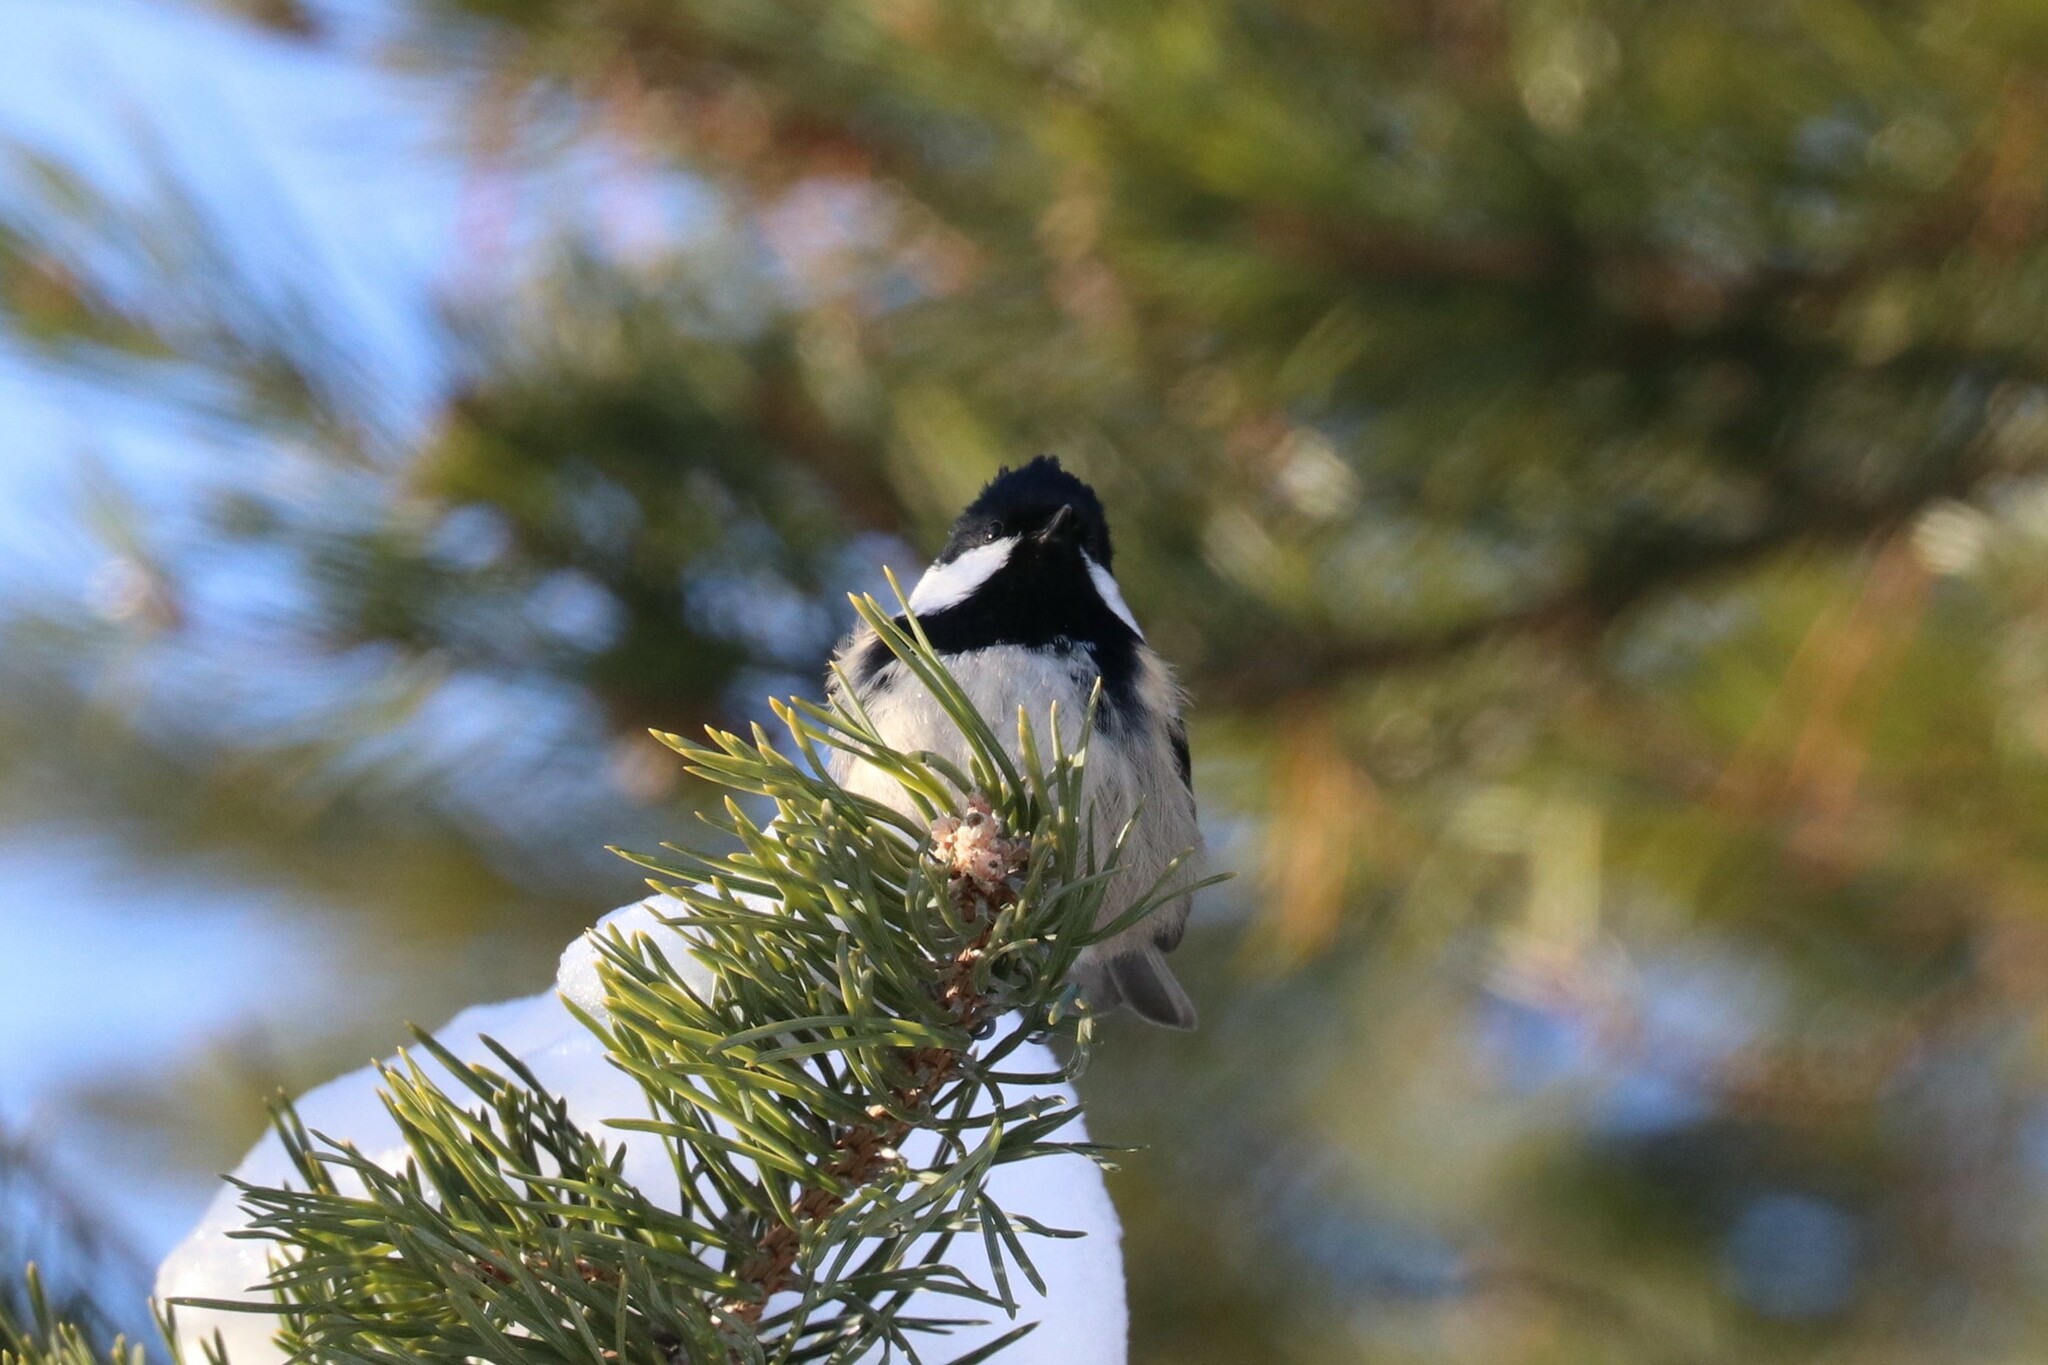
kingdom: Animalia
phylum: Chordata
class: Aves
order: Passeriformes
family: Paridae
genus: Periparus
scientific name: Periparus ater
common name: Coal tit
